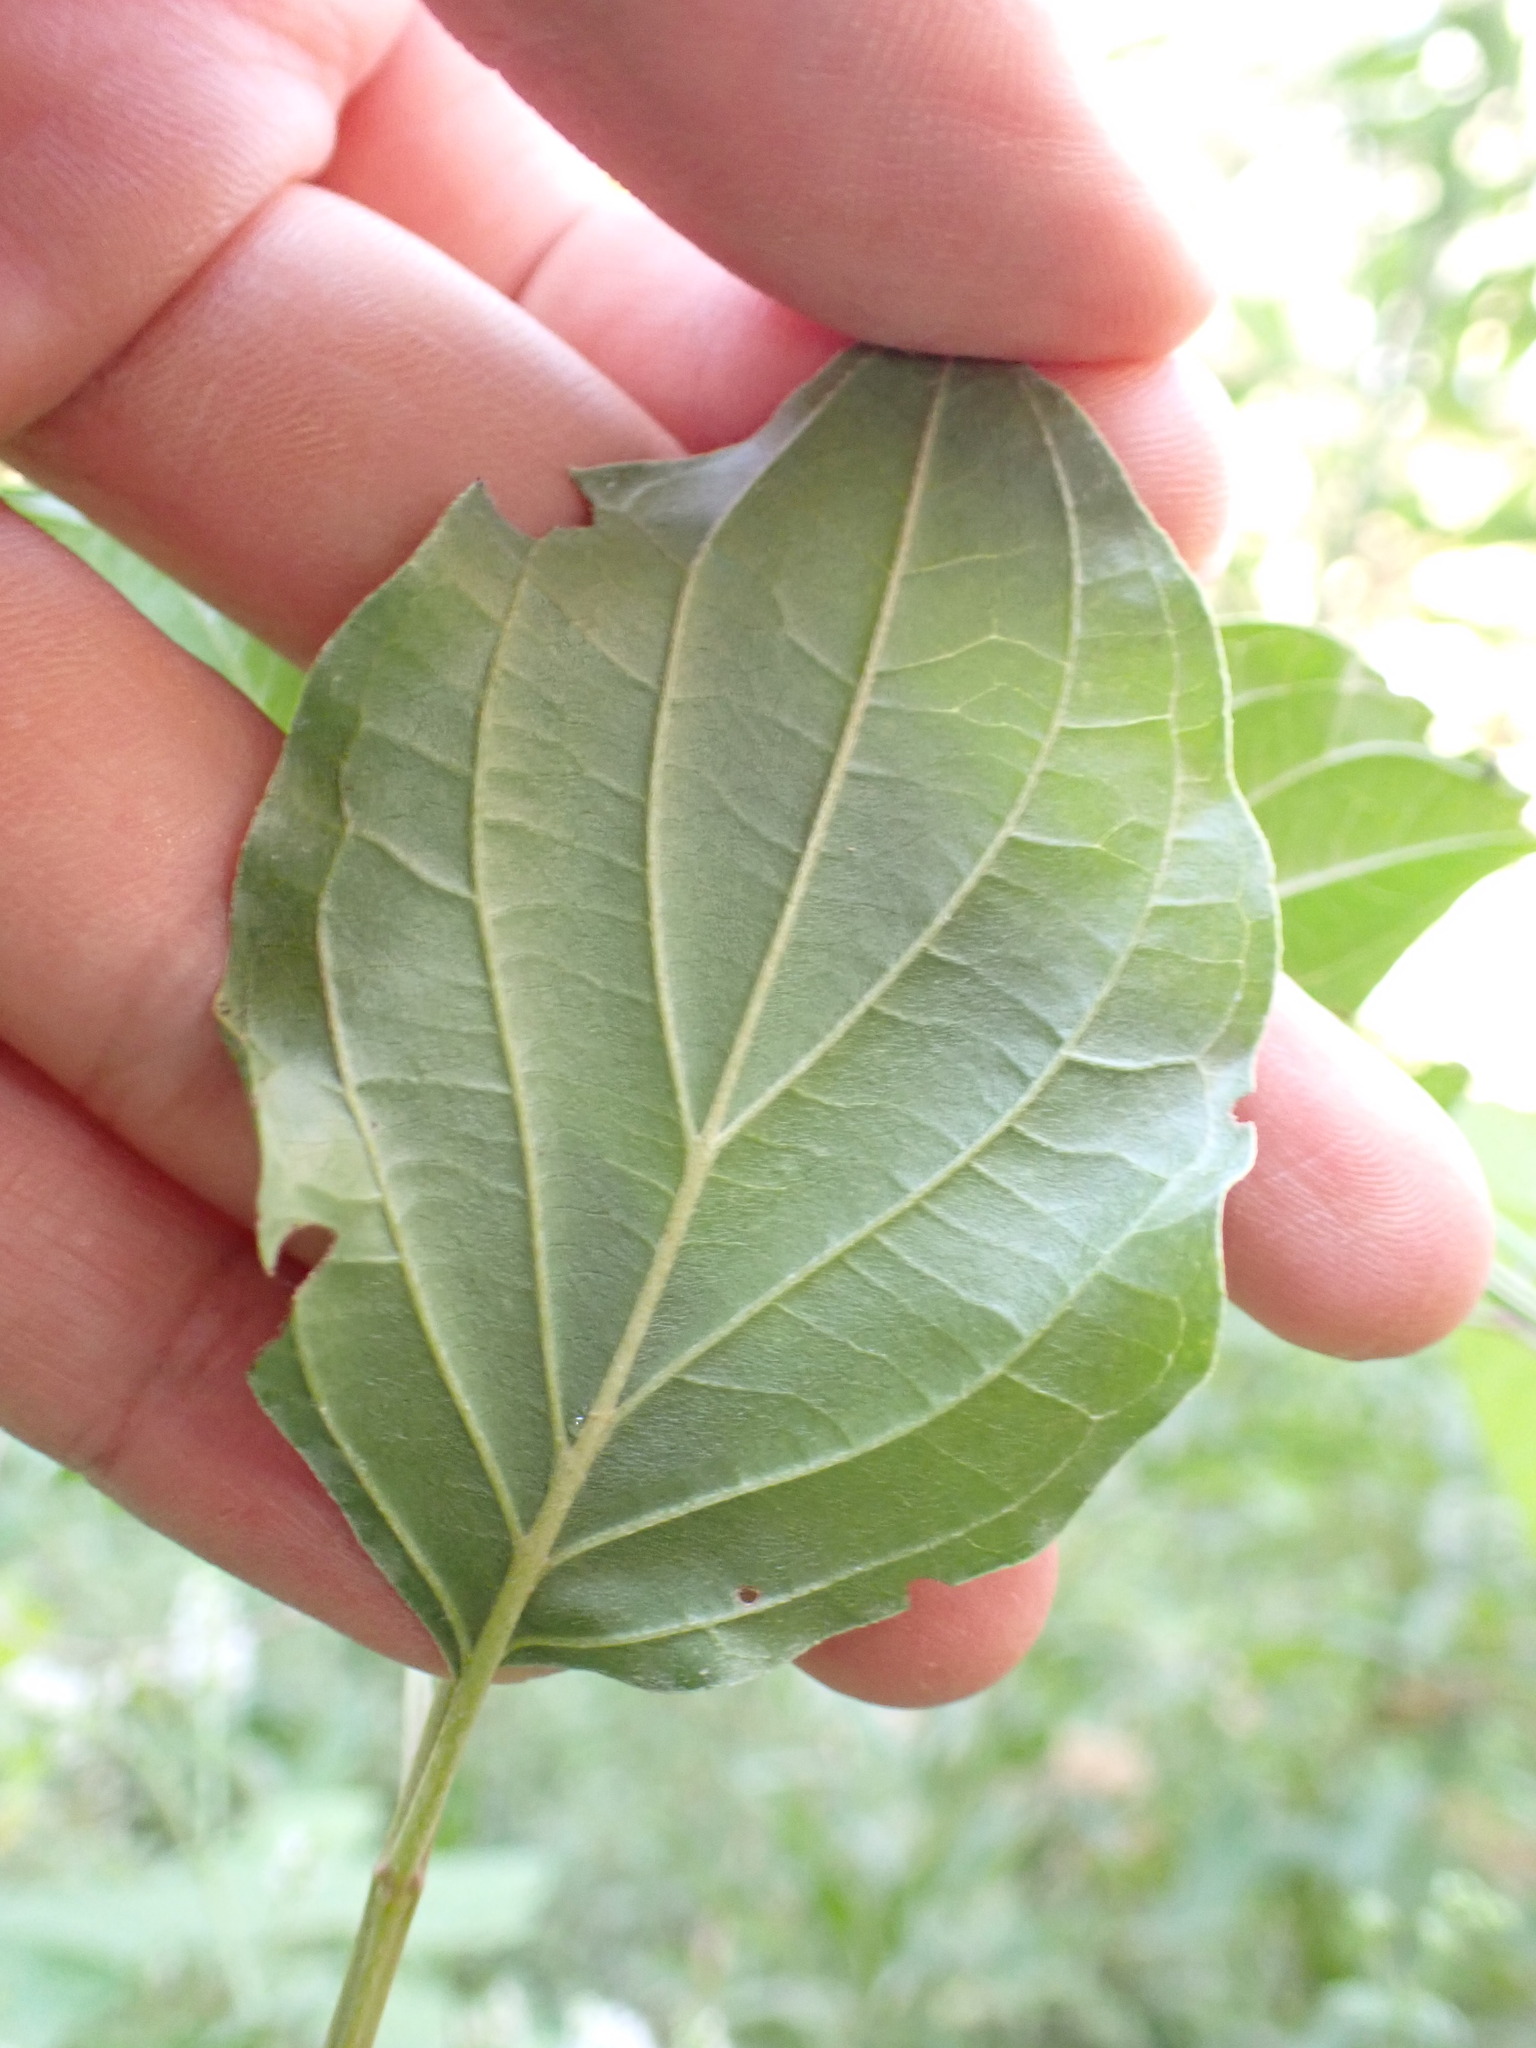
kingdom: Plantae
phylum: Tracheophyta
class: Magnoliopsida
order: Cornales
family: Cornaceae
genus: Cornus
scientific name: Cornus sanguinea
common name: Dogwood
